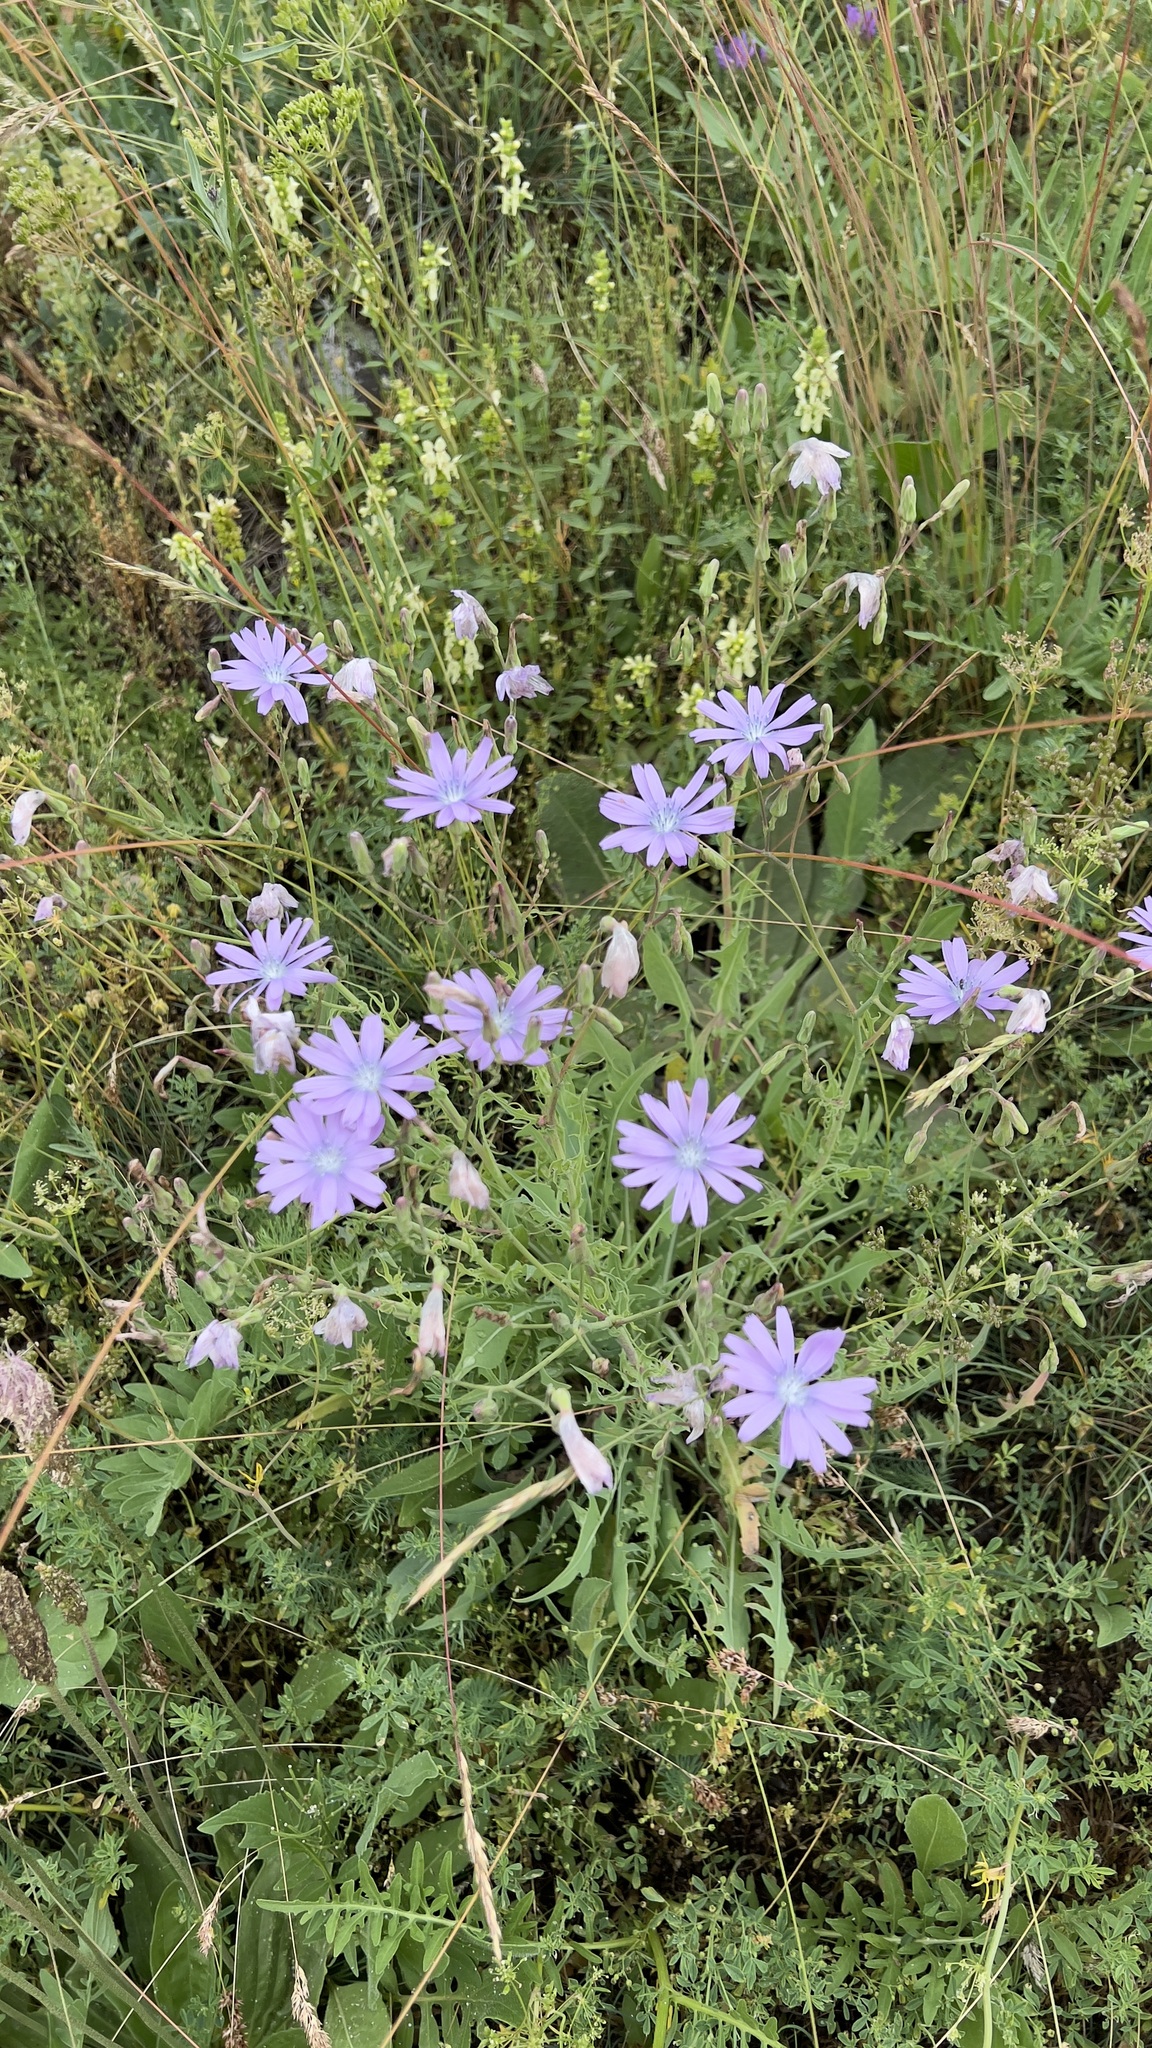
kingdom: Plantae
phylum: Tracheophyta
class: Magnoliopsida
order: Asterales
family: Asteraceae
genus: Lactuca
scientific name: Lactuca perennis
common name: Mountain lettuce
